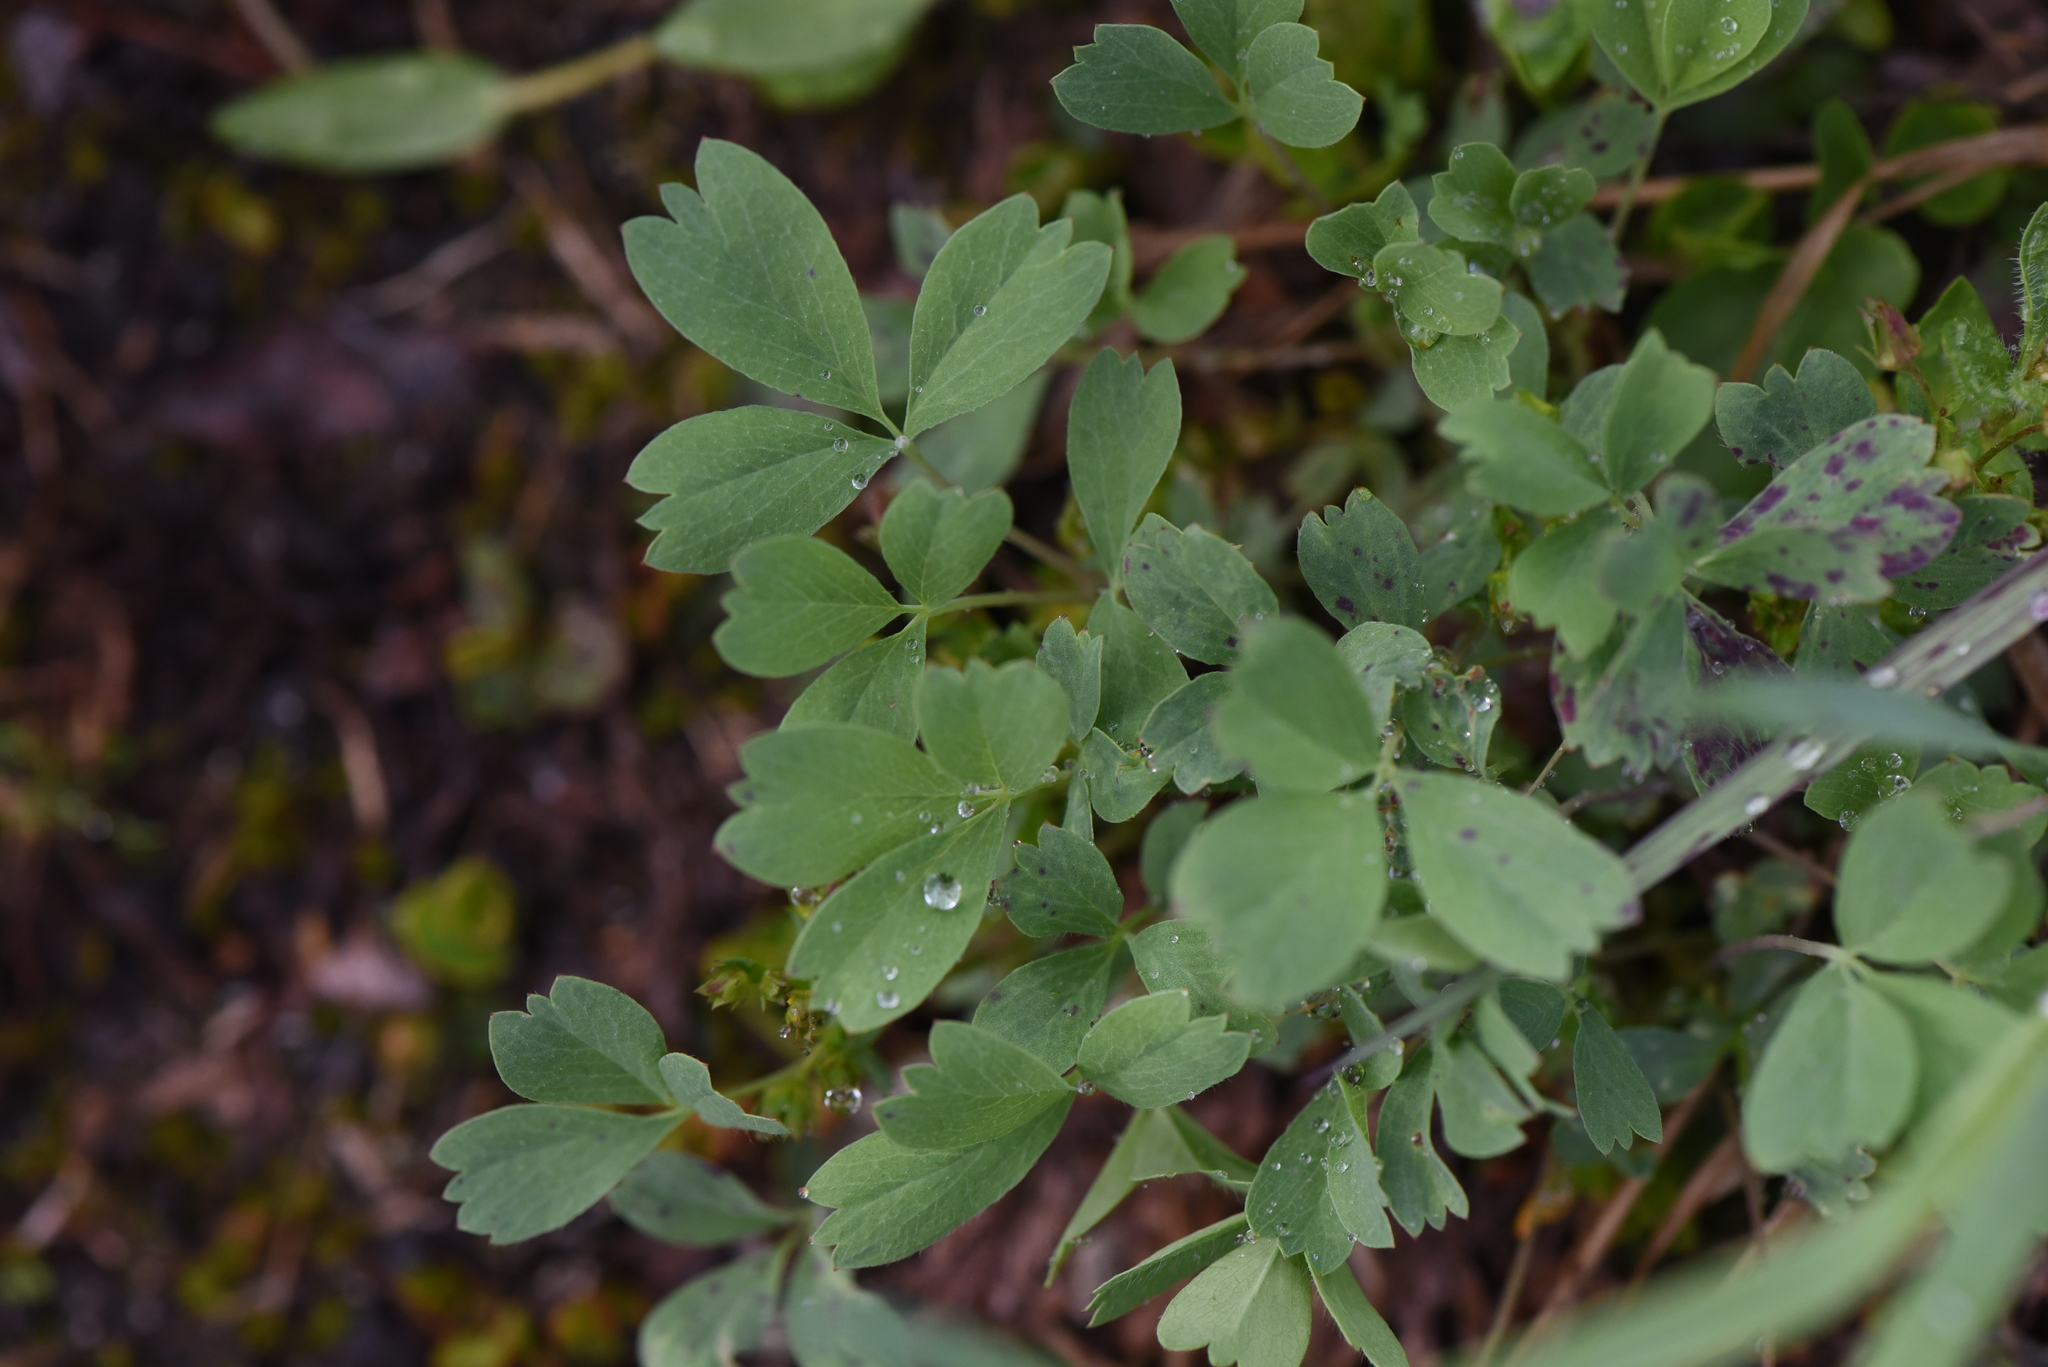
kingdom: Plantae
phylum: Tracheophyta
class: Magnoliopsida
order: Rosales
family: Rosaceae
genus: Sibbaldia
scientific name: Sibbaldia procumbens
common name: Creeping sibbaldia
